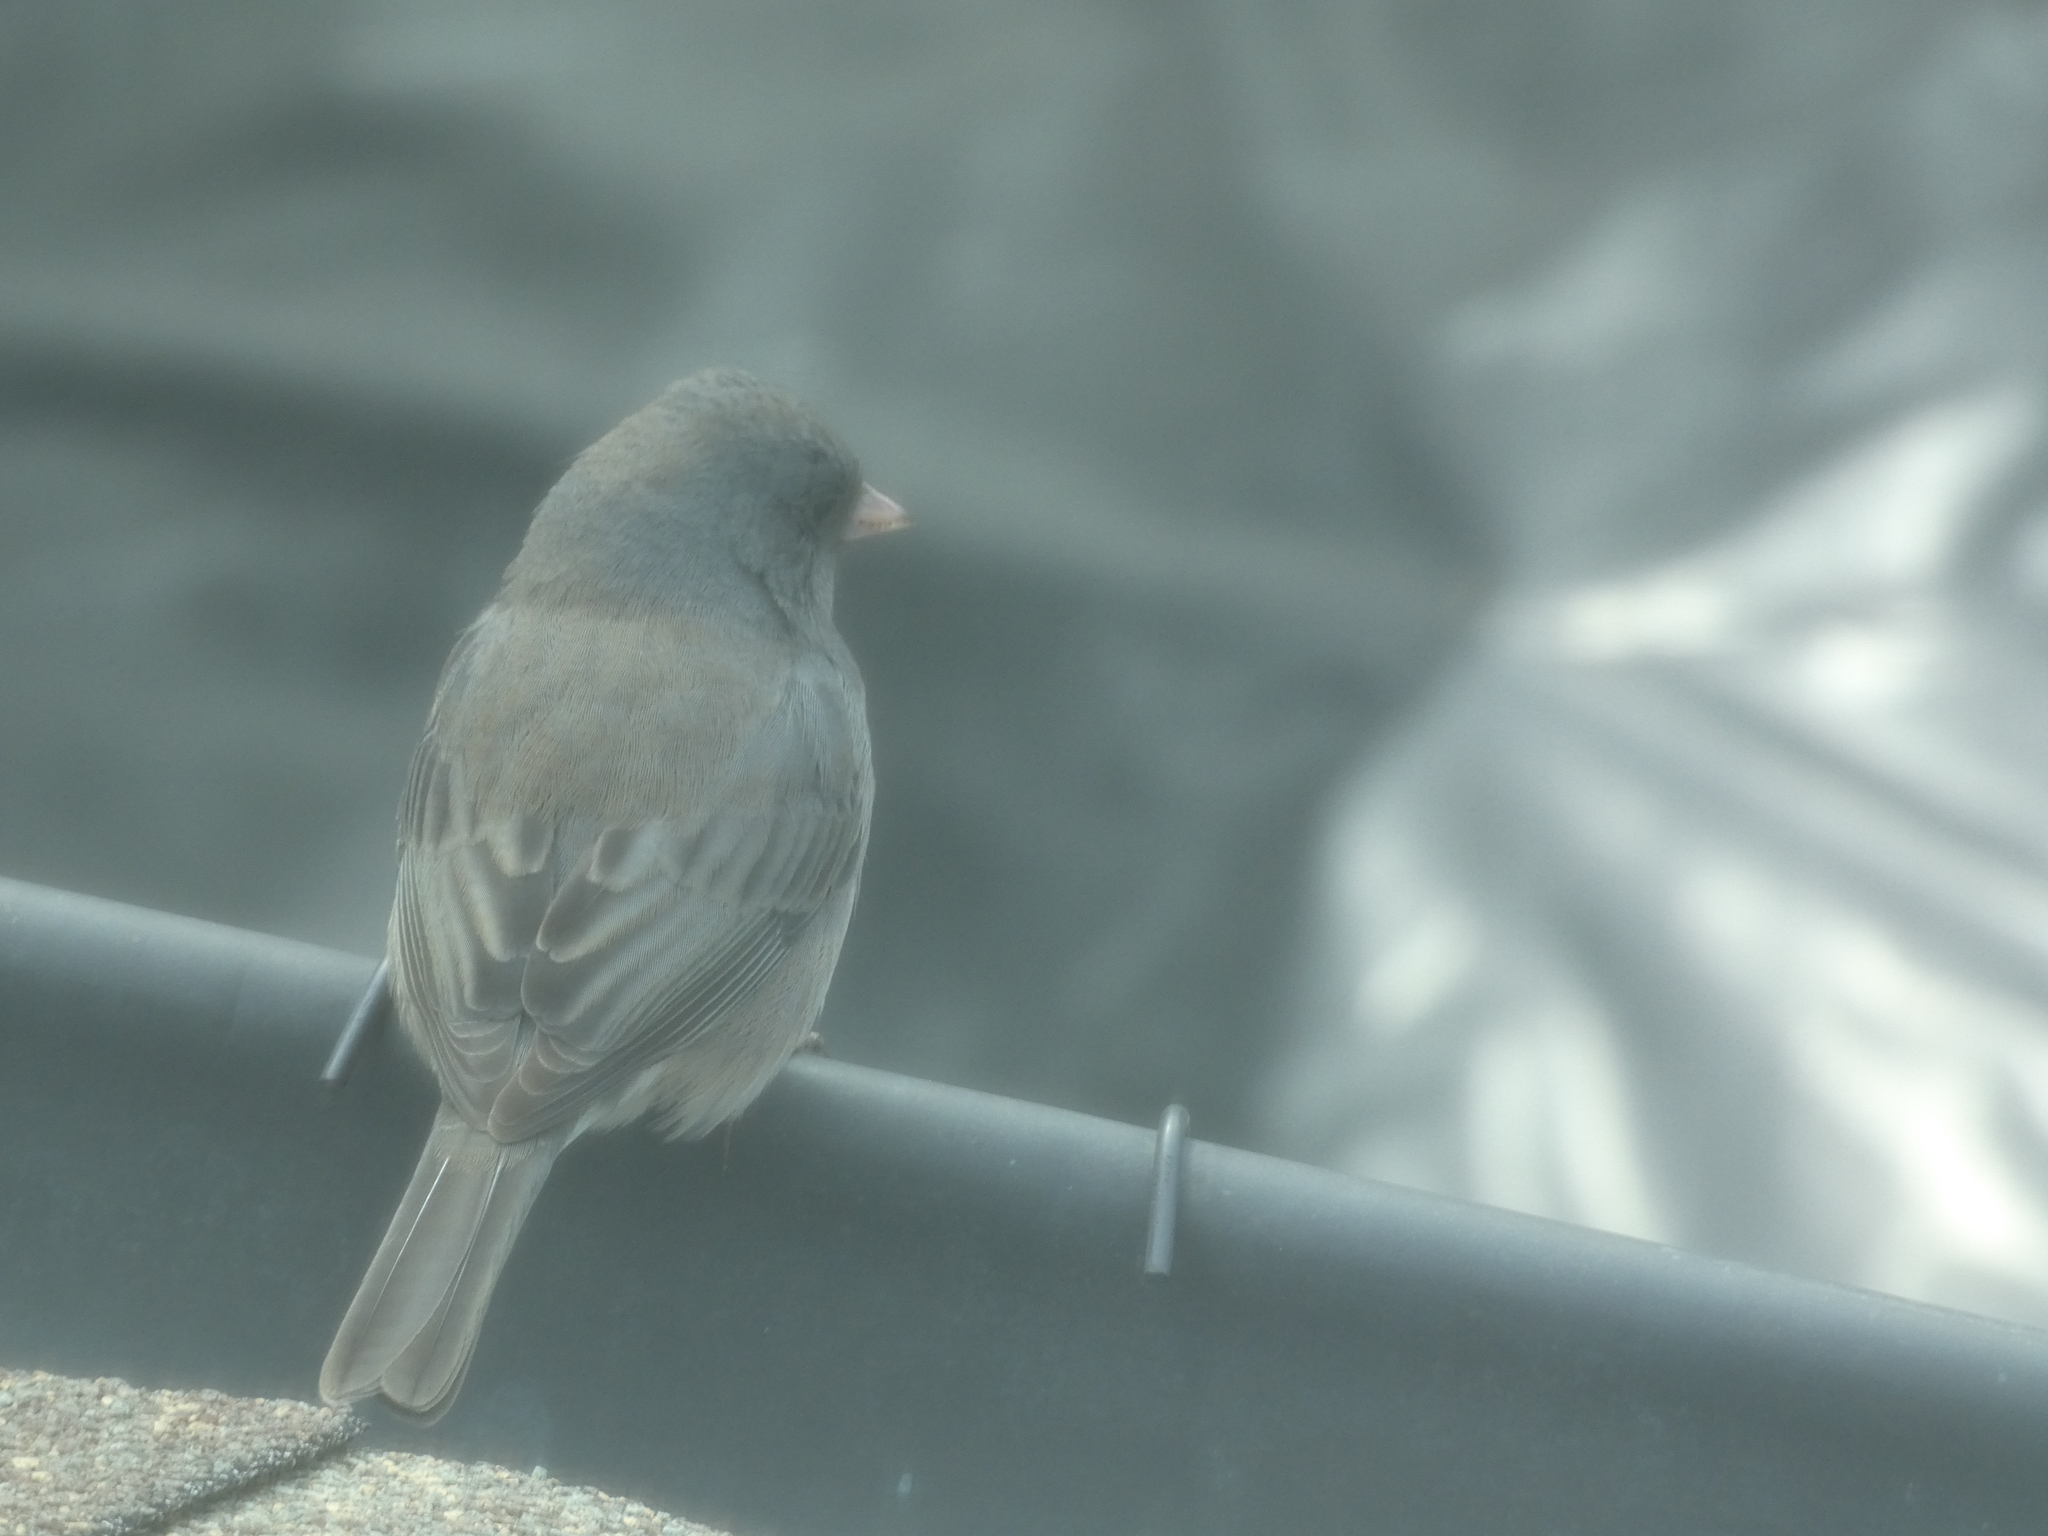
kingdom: Animalia
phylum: Chordata
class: Aves
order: Passeriformes
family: Passerellidae
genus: Junco
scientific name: Junco hyemalis
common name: Dark-eyed junco
